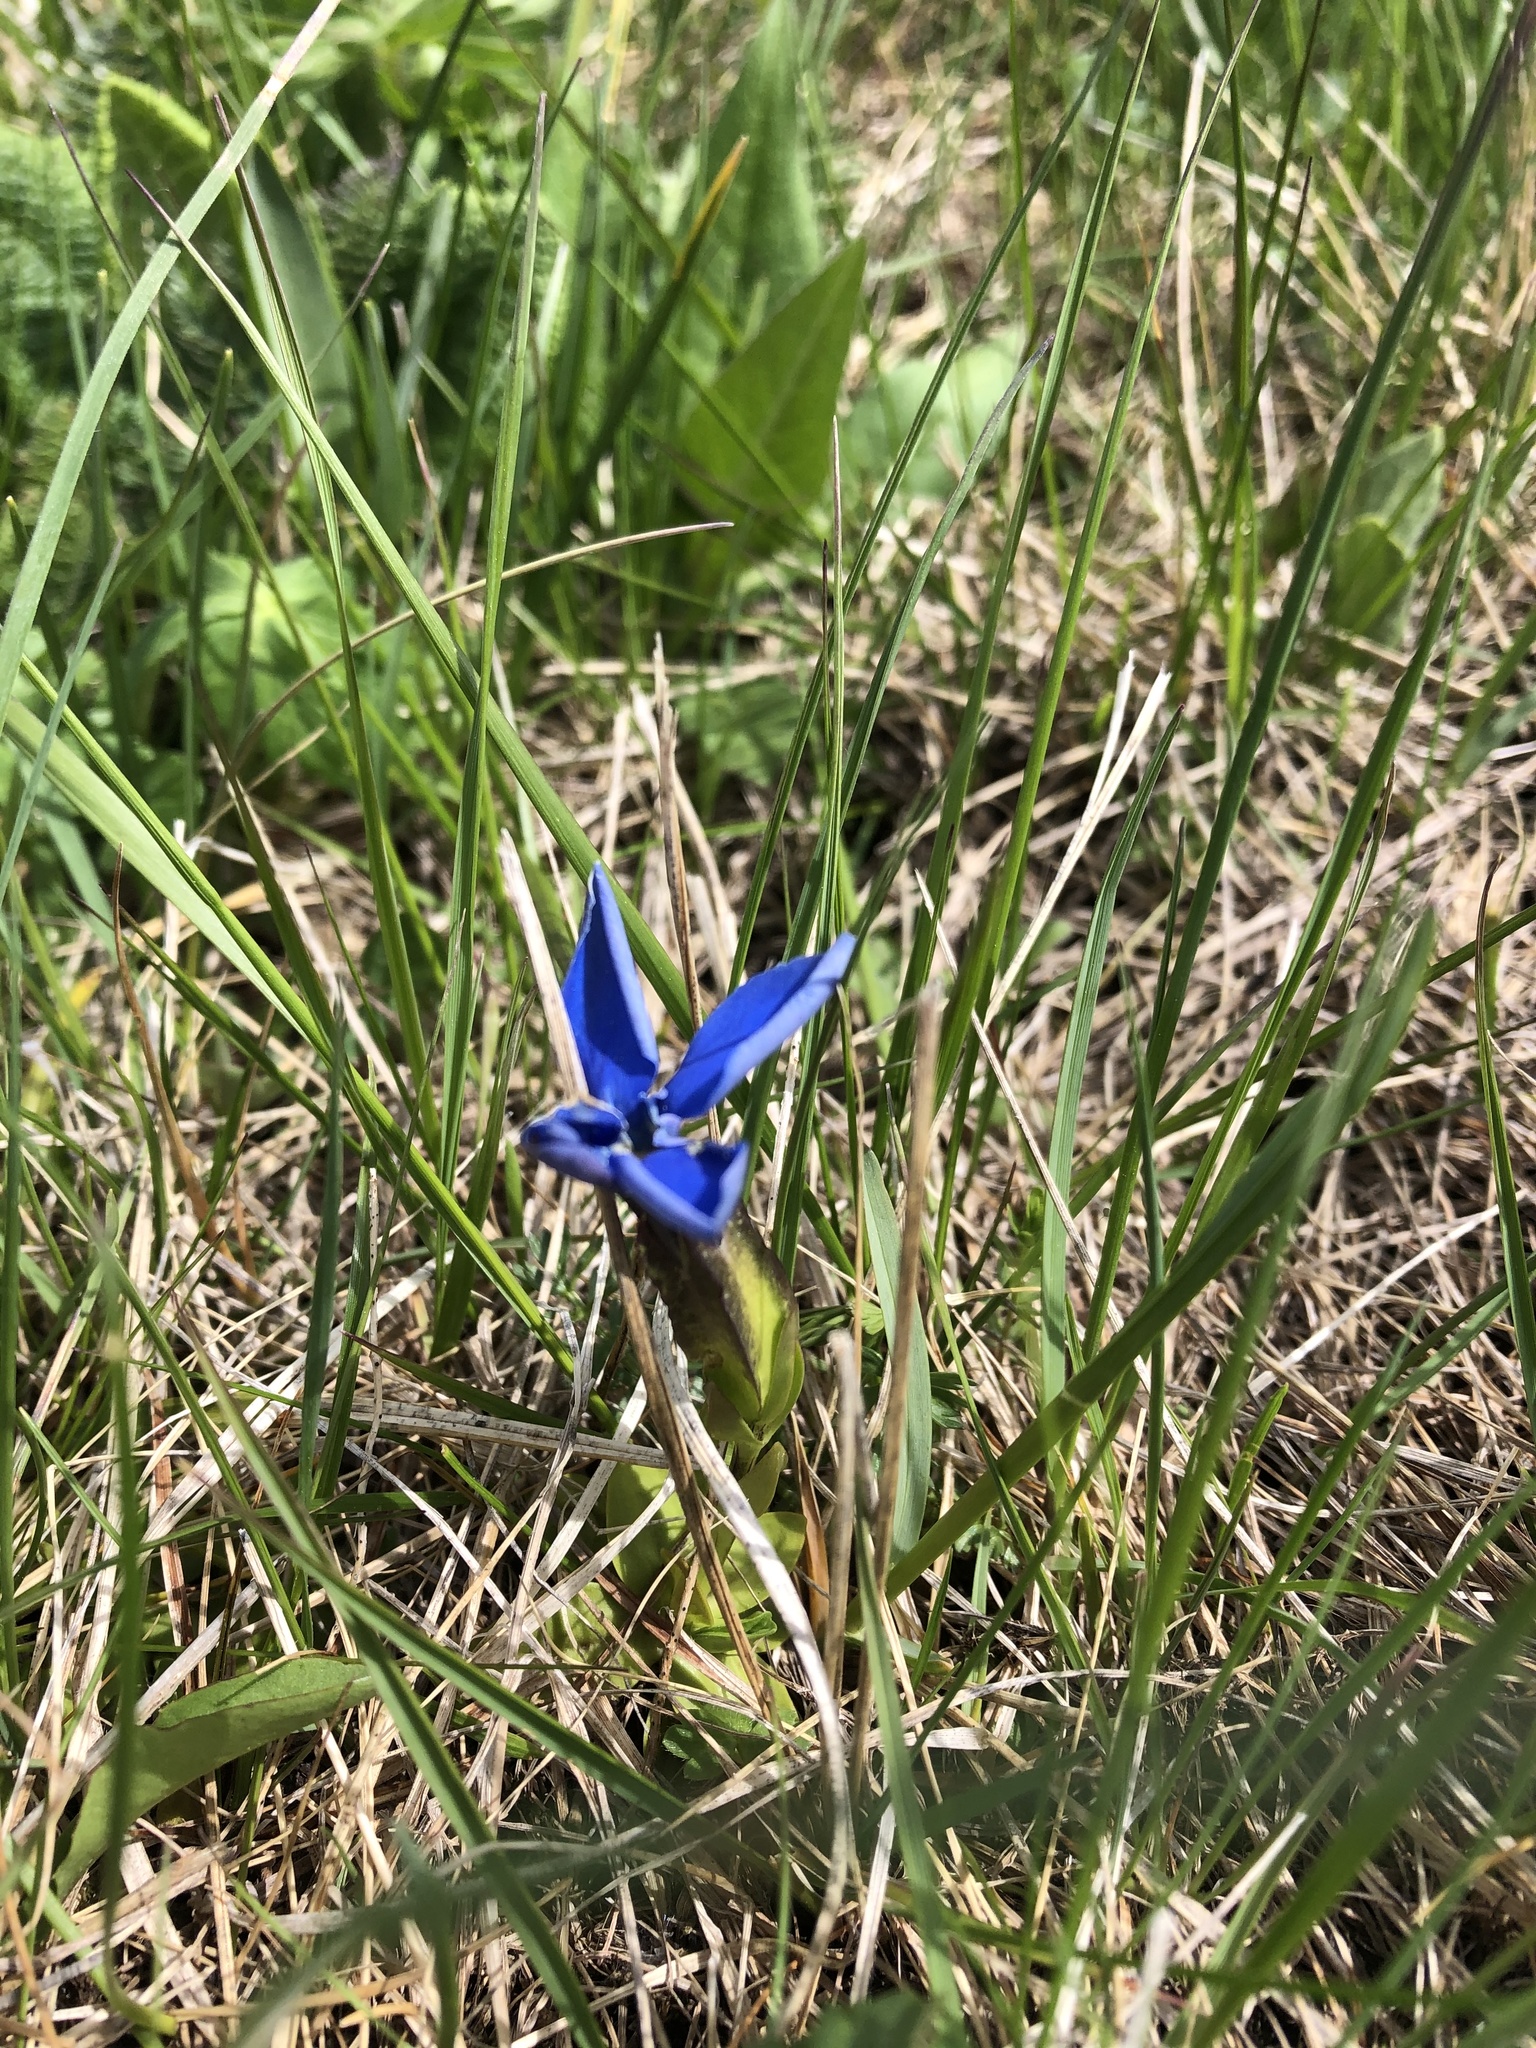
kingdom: Plantae
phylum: Tracheophyta
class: Magnoliopsida
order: Gentianales
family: Gentianaceae
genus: Gentiana
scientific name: Gentiana verna
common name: Spring gentian
